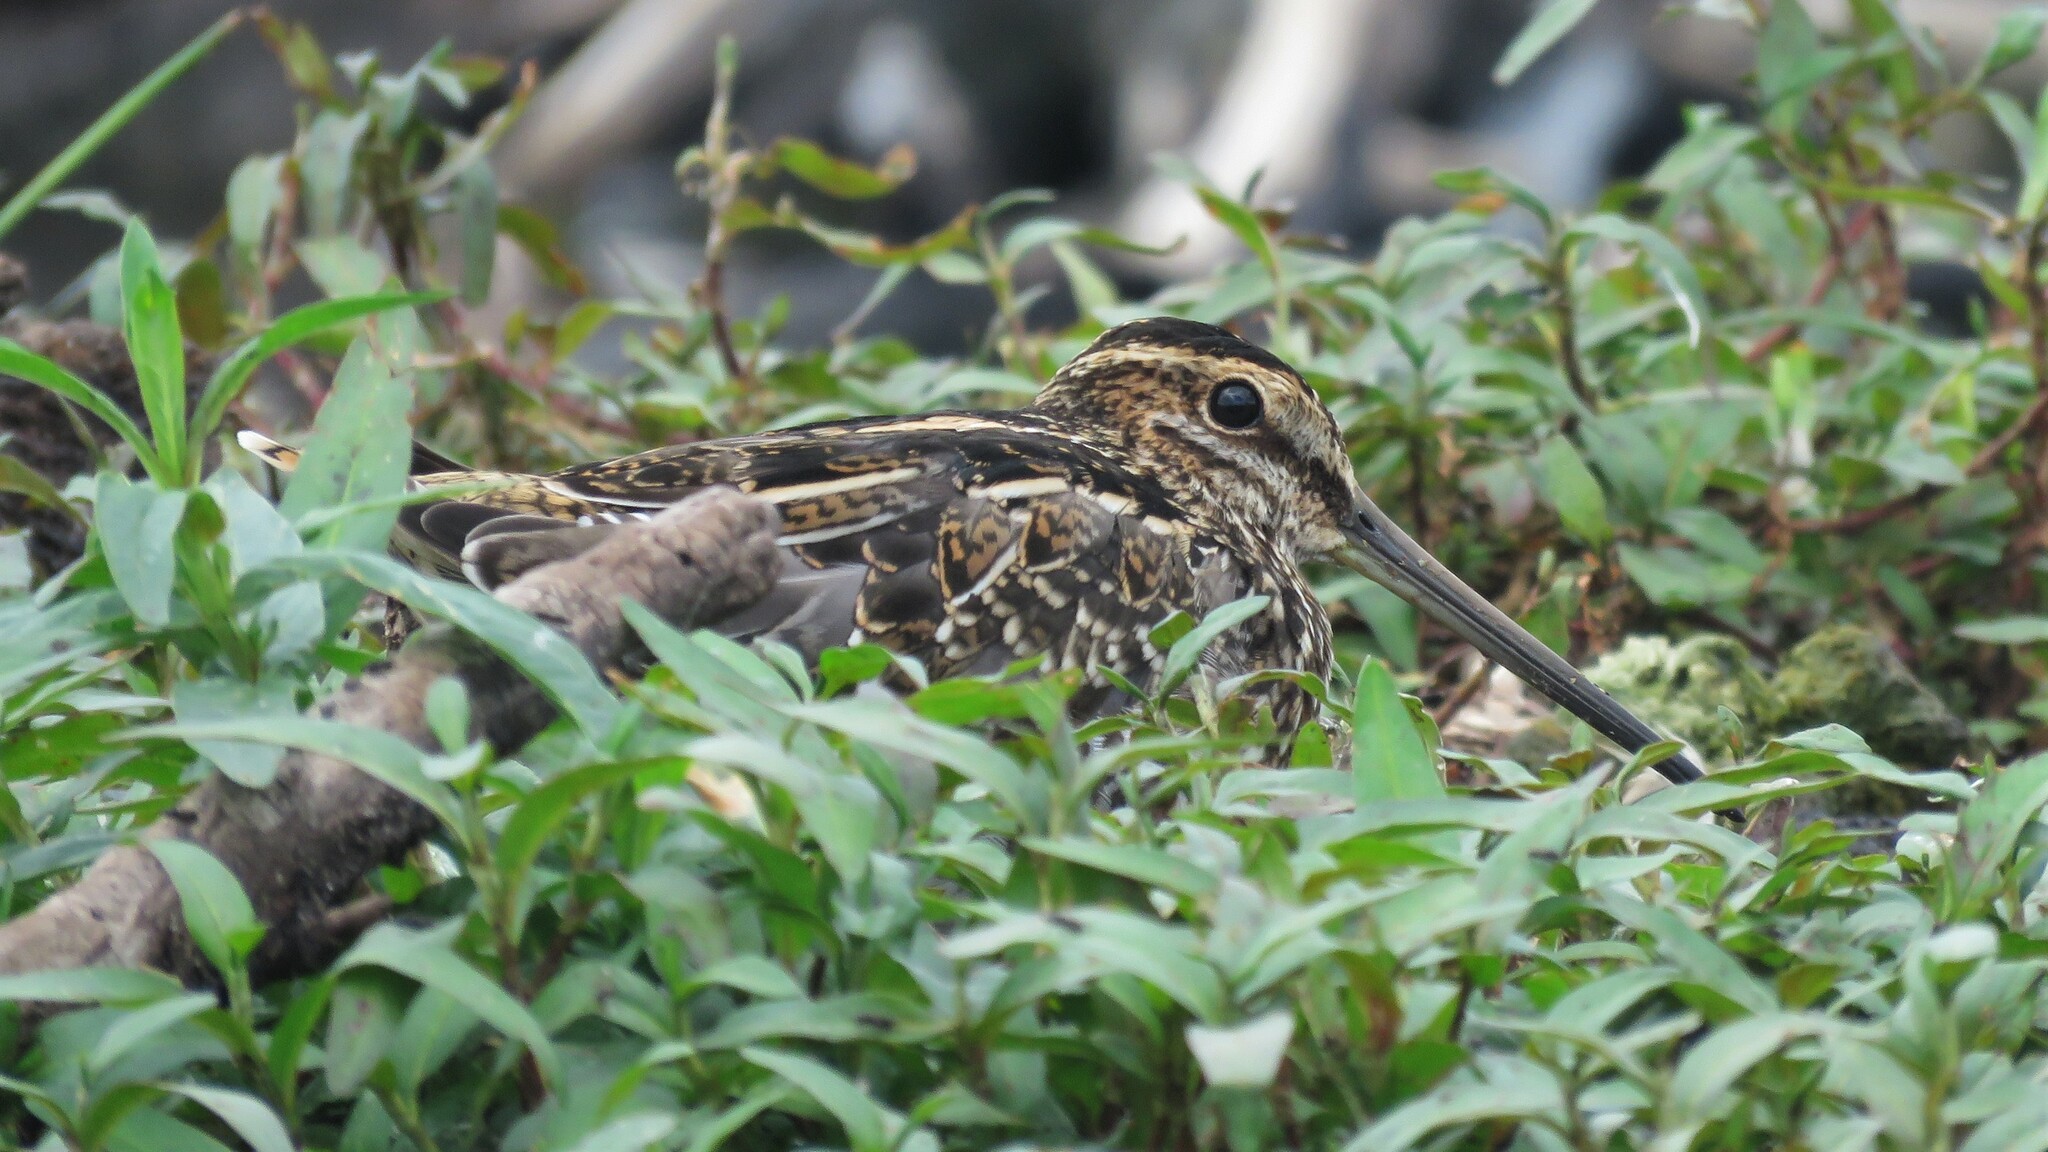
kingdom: Animalia
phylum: Chordata
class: Aves
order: Charadriiformes
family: Scolopacidae
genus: Gallinago
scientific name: Gallinago delicata
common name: Wilson's snipe
